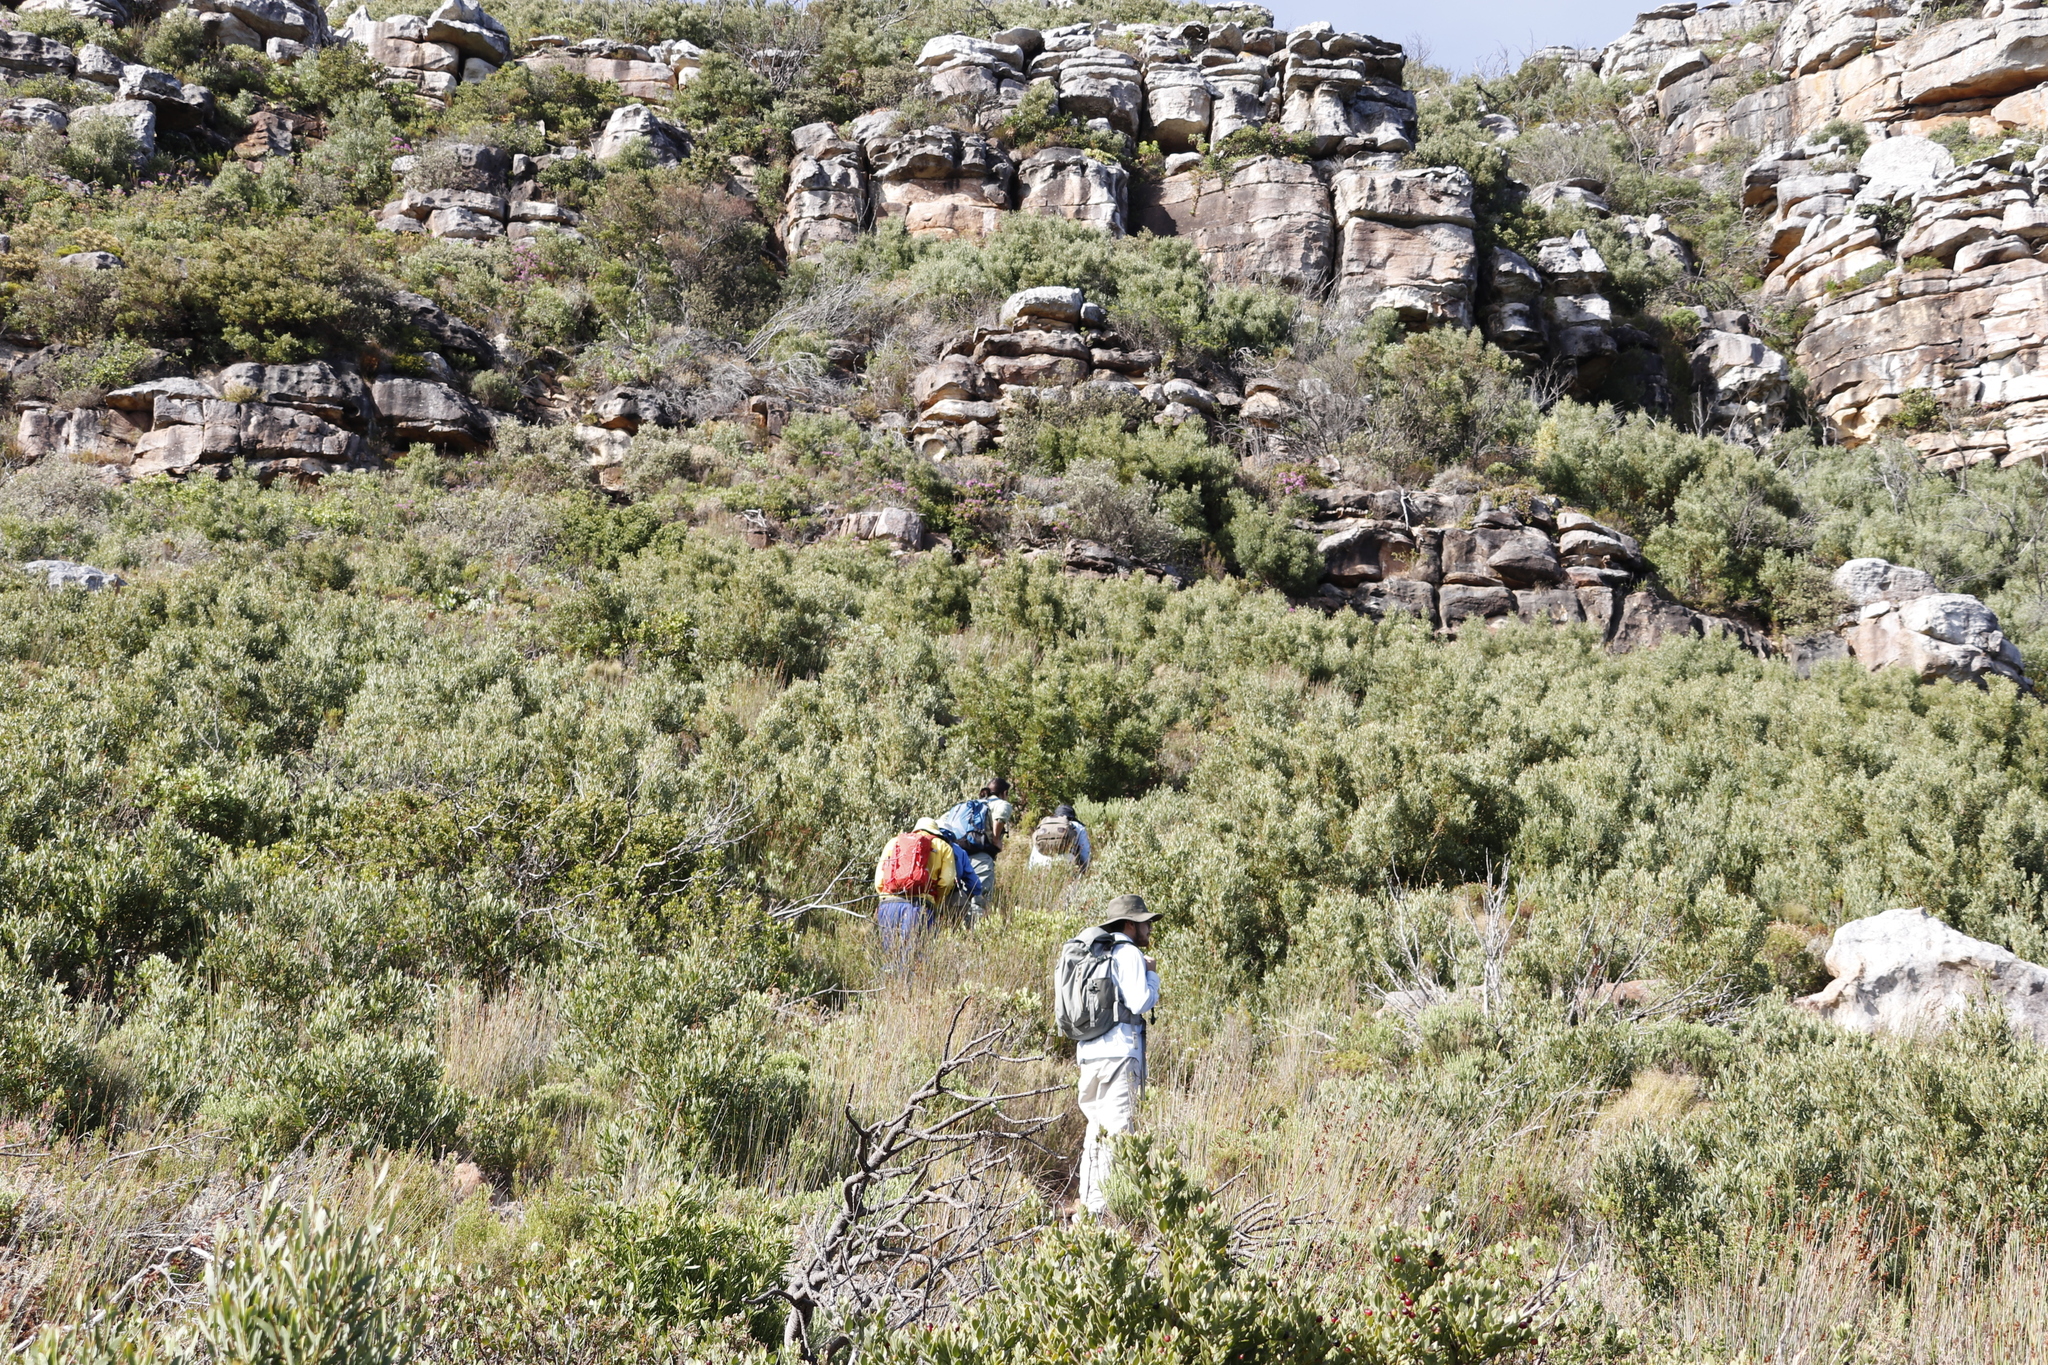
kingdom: Plantae
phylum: Tracheophyta
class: Magnoliopsida
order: Fabales
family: Fabaceae
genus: Acacia
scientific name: Acacia cyclops
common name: Coastal wattle
